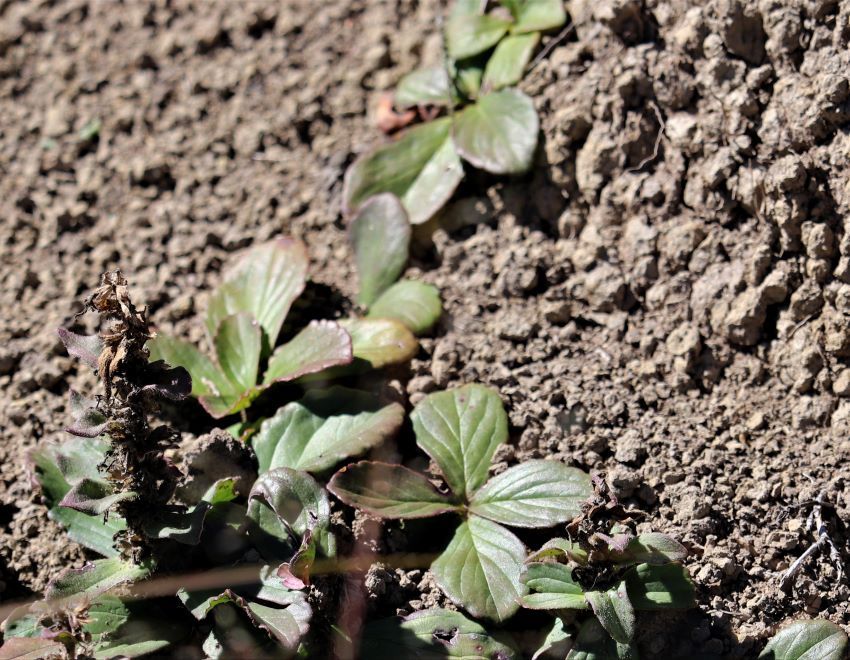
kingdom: Plantae
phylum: Tracheophyta
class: Magnoliopsida
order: Lamiales
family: Lamiaceae
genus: Ajuga
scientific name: Ajuga ophrydis
